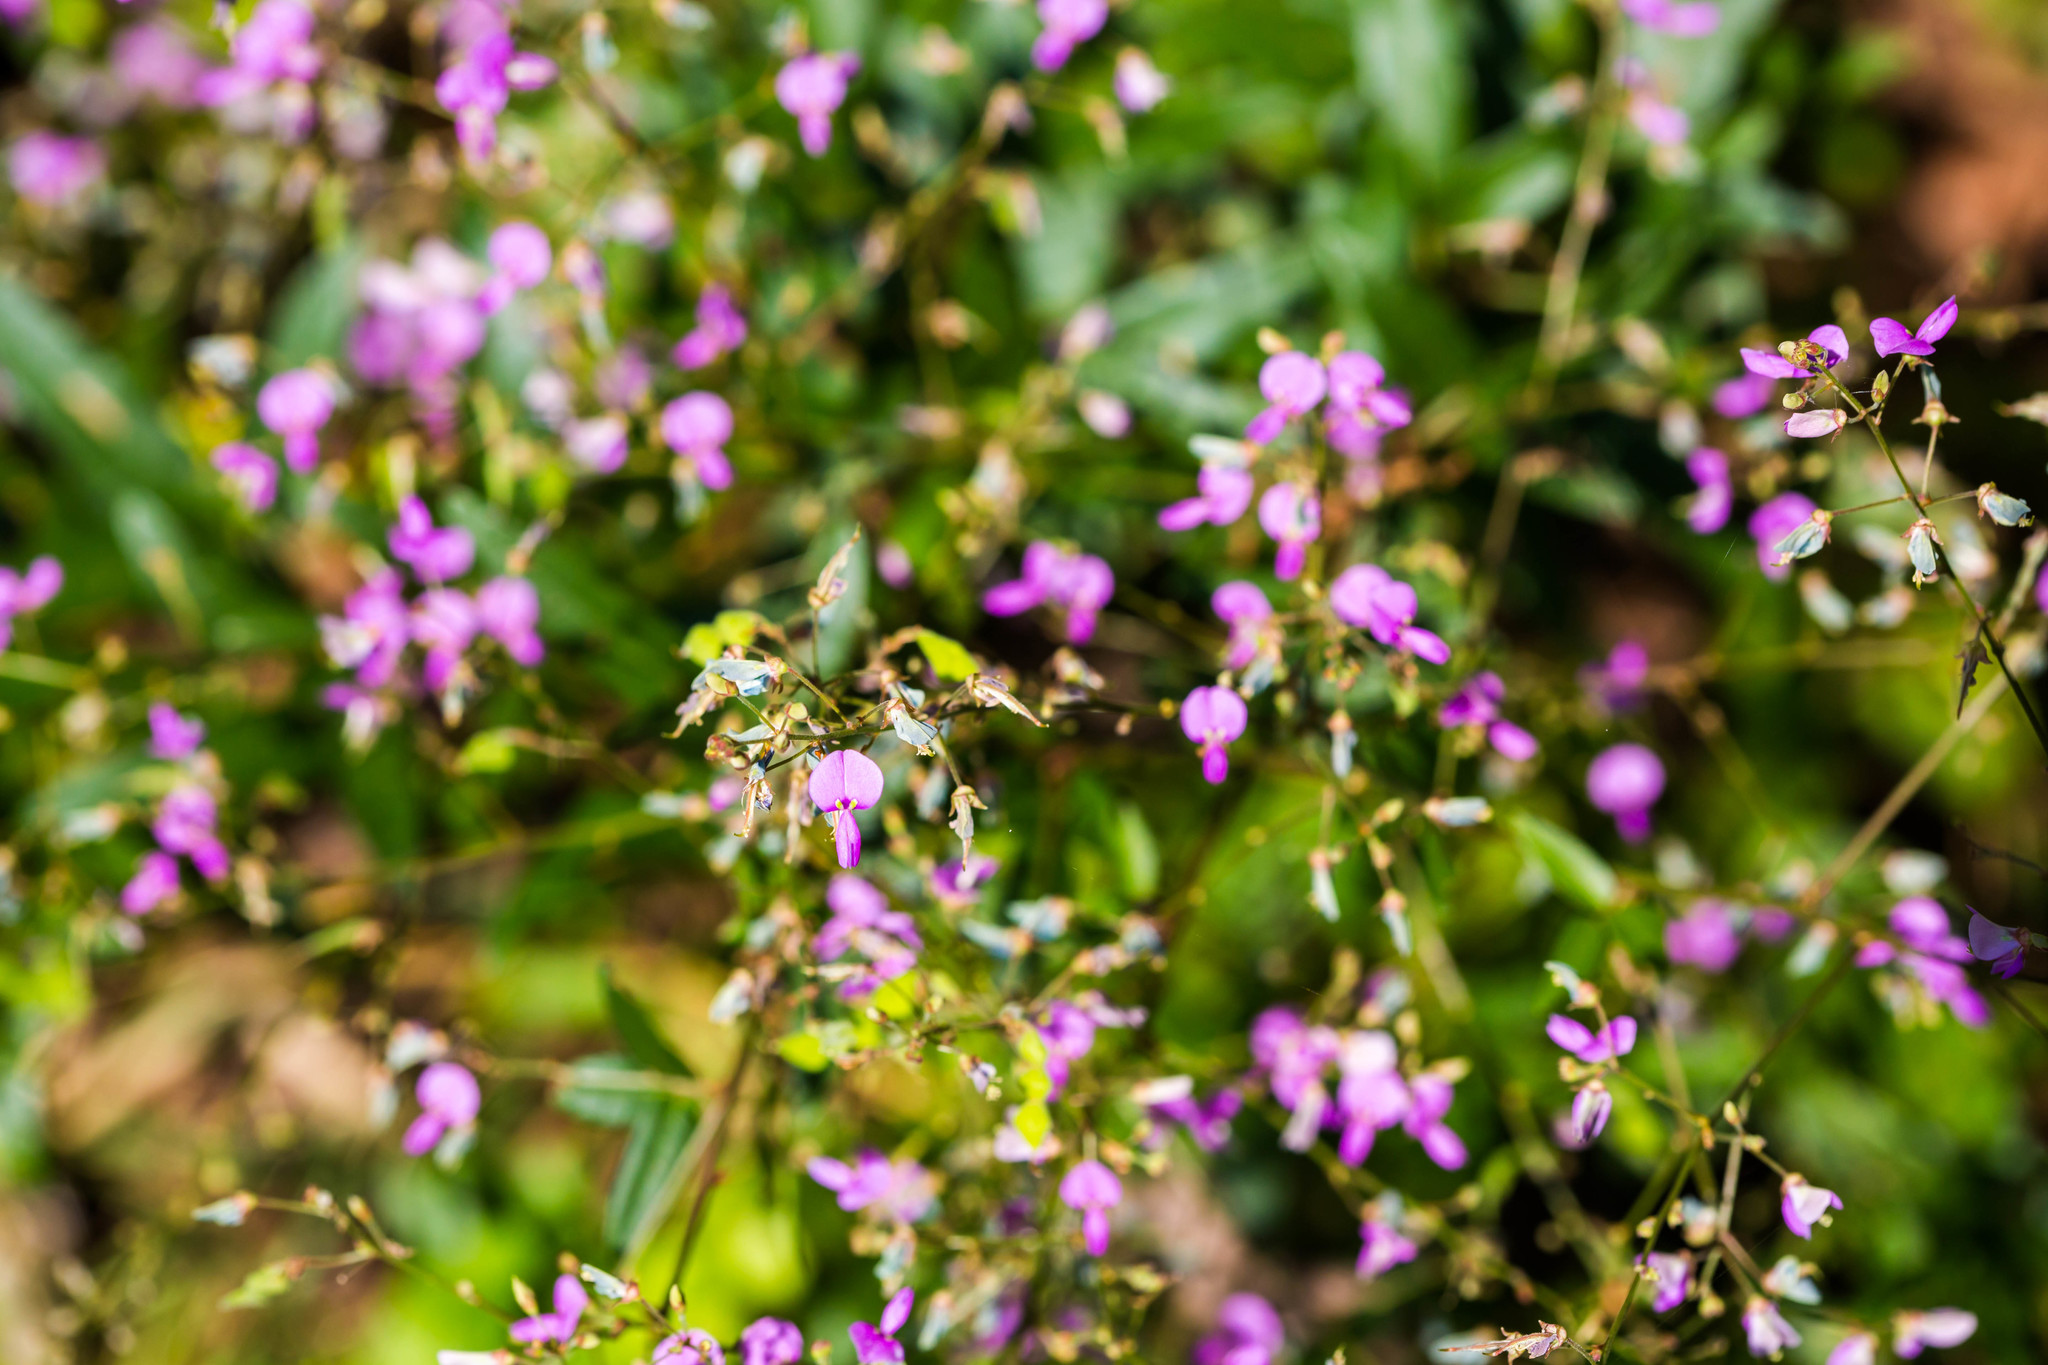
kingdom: Plantae
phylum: Tracheophyta
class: Magnoliopsida
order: Fabales
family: Fabaceae
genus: Desmodium
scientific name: Desmodium paniculatum
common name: Panicled tick-clover
